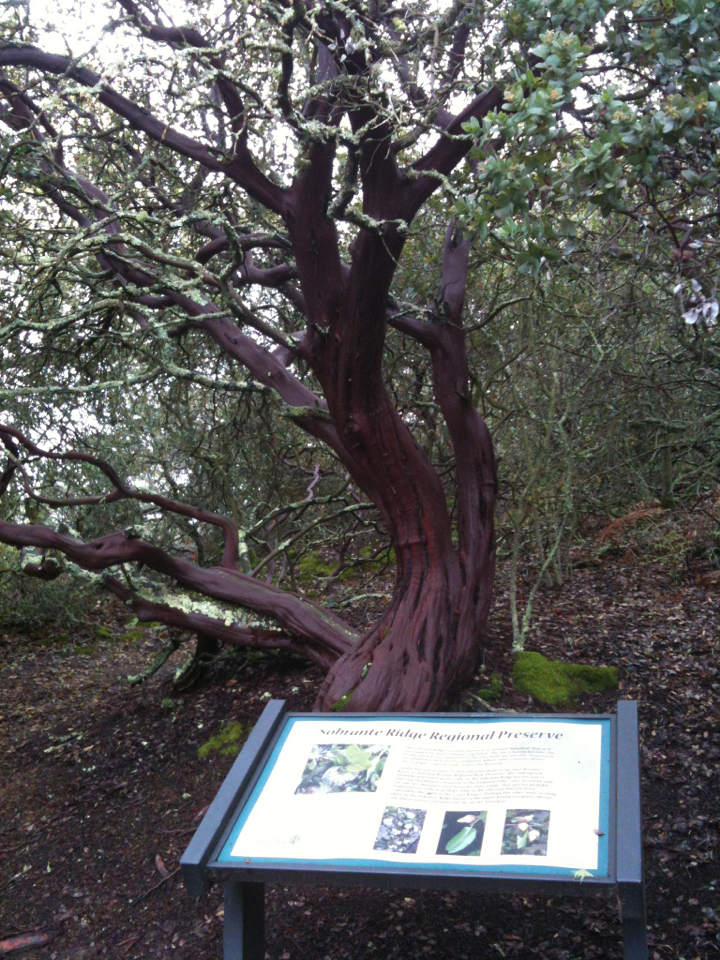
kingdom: Plantae
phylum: Tracheophyta
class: Magnoliopsida
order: Ericales
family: Ericaceae
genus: Arctostaphylos
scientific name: Arctostaphylos pallida
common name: Pallid manzanita
